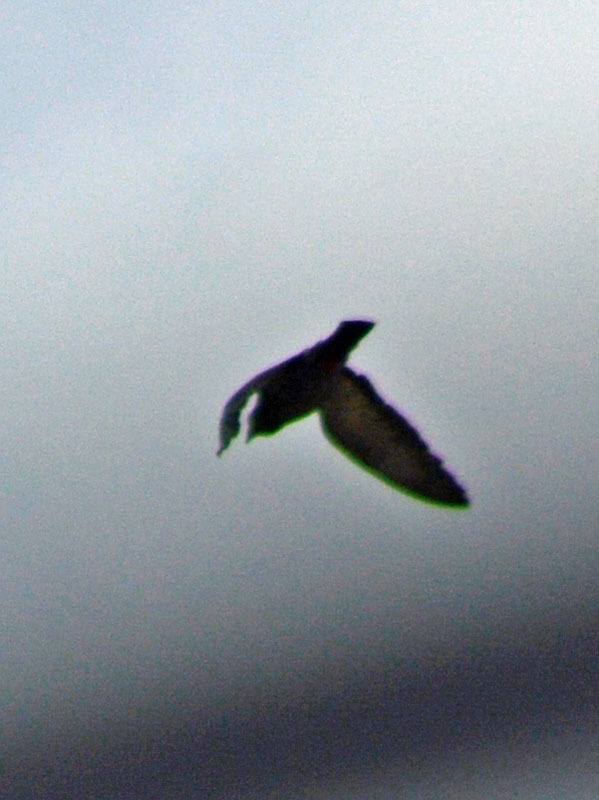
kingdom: Animalia
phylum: Chordata
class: Aves
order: Columbiformes
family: Columbidae
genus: Columba
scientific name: Columba livia
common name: Rock pigeon
